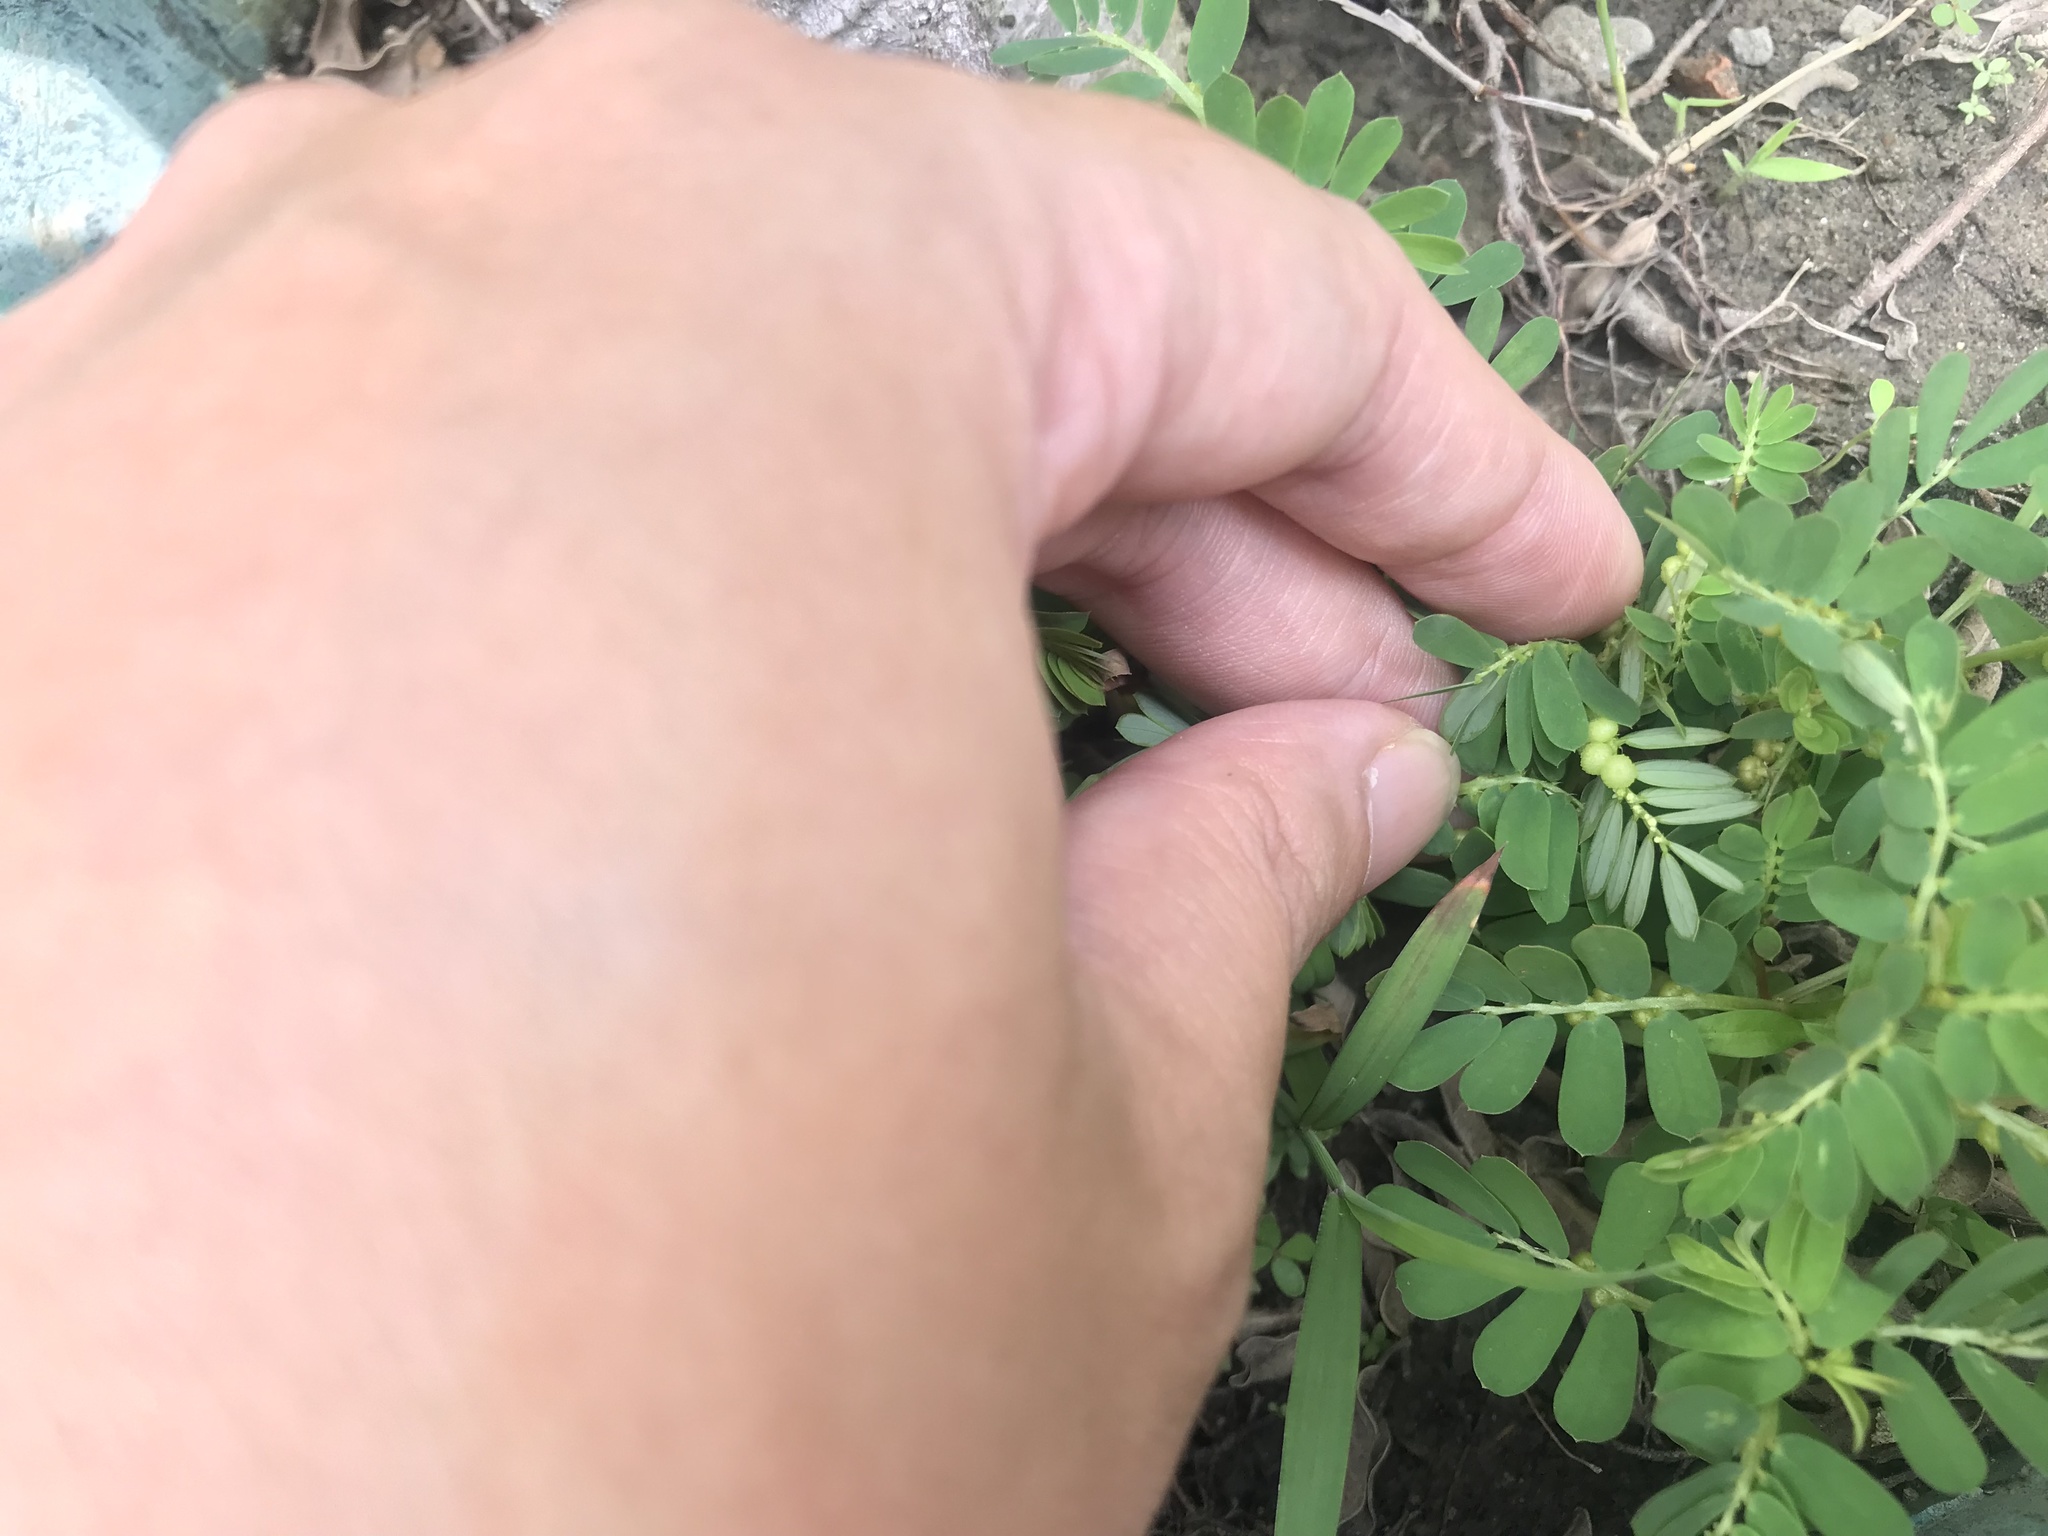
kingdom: Plantae
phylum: Tracheophyta
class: Magnoliopsida
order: Malpighiales
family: Phyllanthaceae
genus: Phyllanthus
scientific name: Phyllanthus urinaria
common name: Chamber bitter
